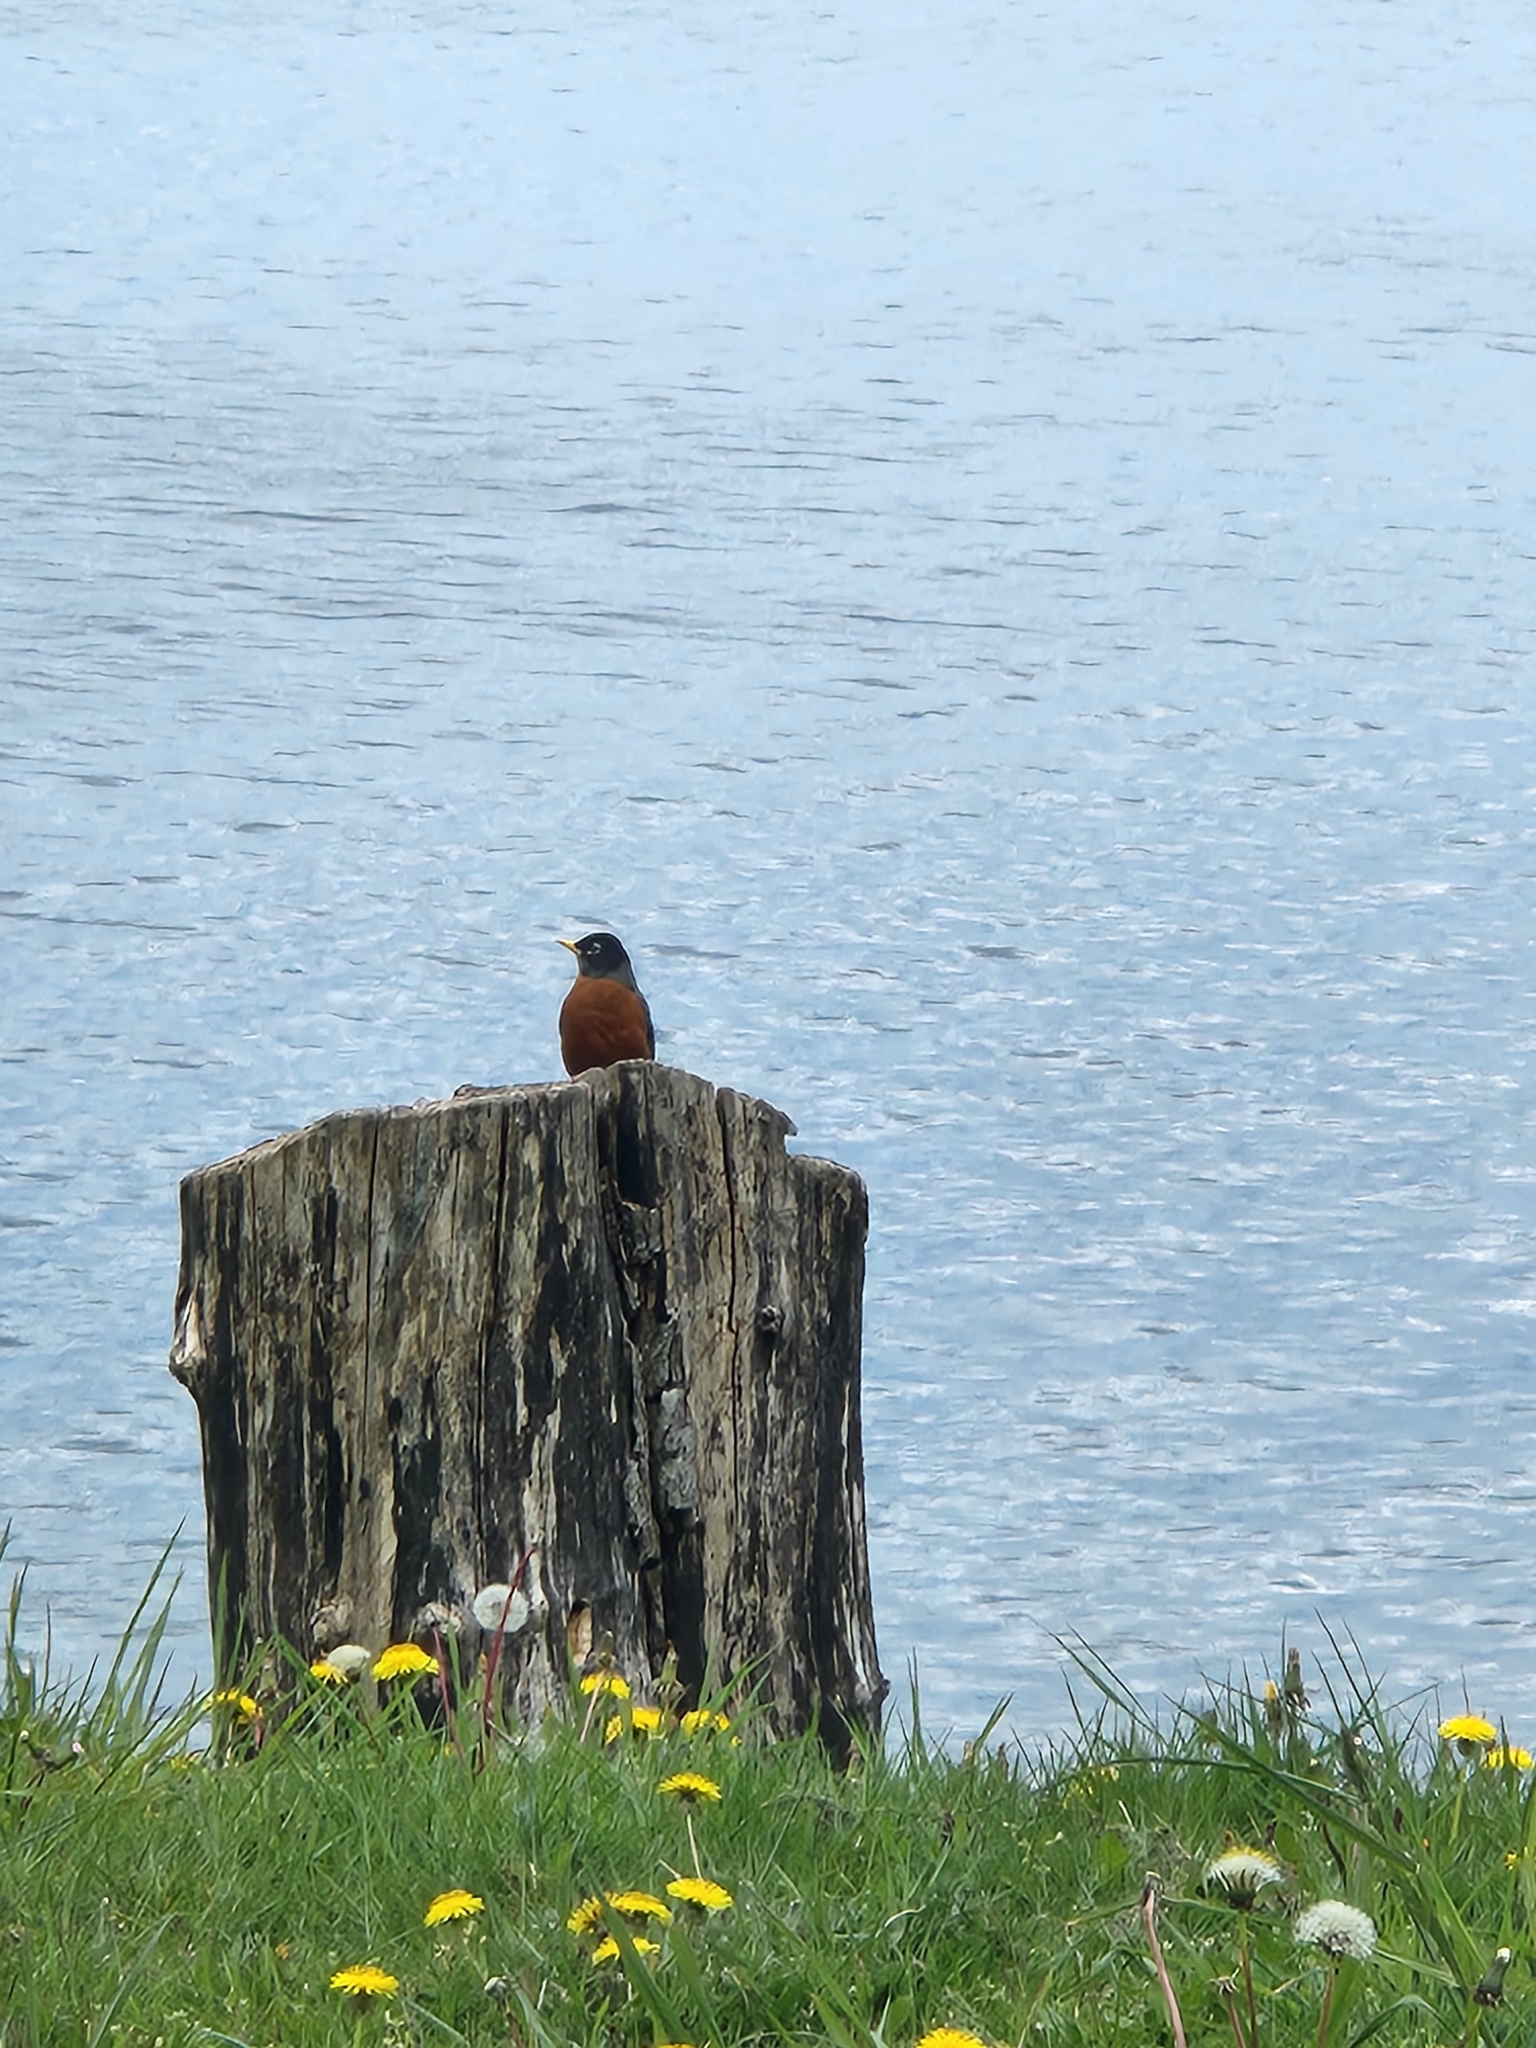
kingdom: Animalia
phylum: Chordata
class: Aves
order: Passeriformes
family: Turdidae
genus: Turdus
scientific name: Turdus migratorius
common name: American robin
